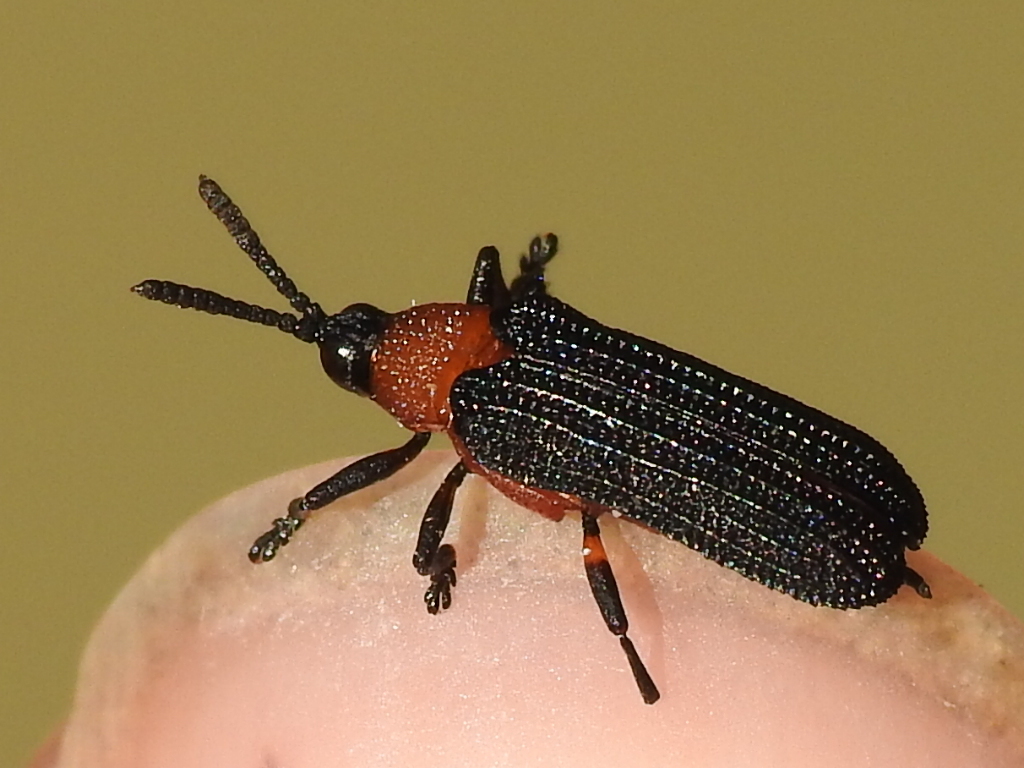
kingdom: Animalia
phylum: Arthropoda
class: Insecta
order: Coleoptera
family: Chrysomelidae
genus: Chalepus
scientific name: Chalepus bicolor
